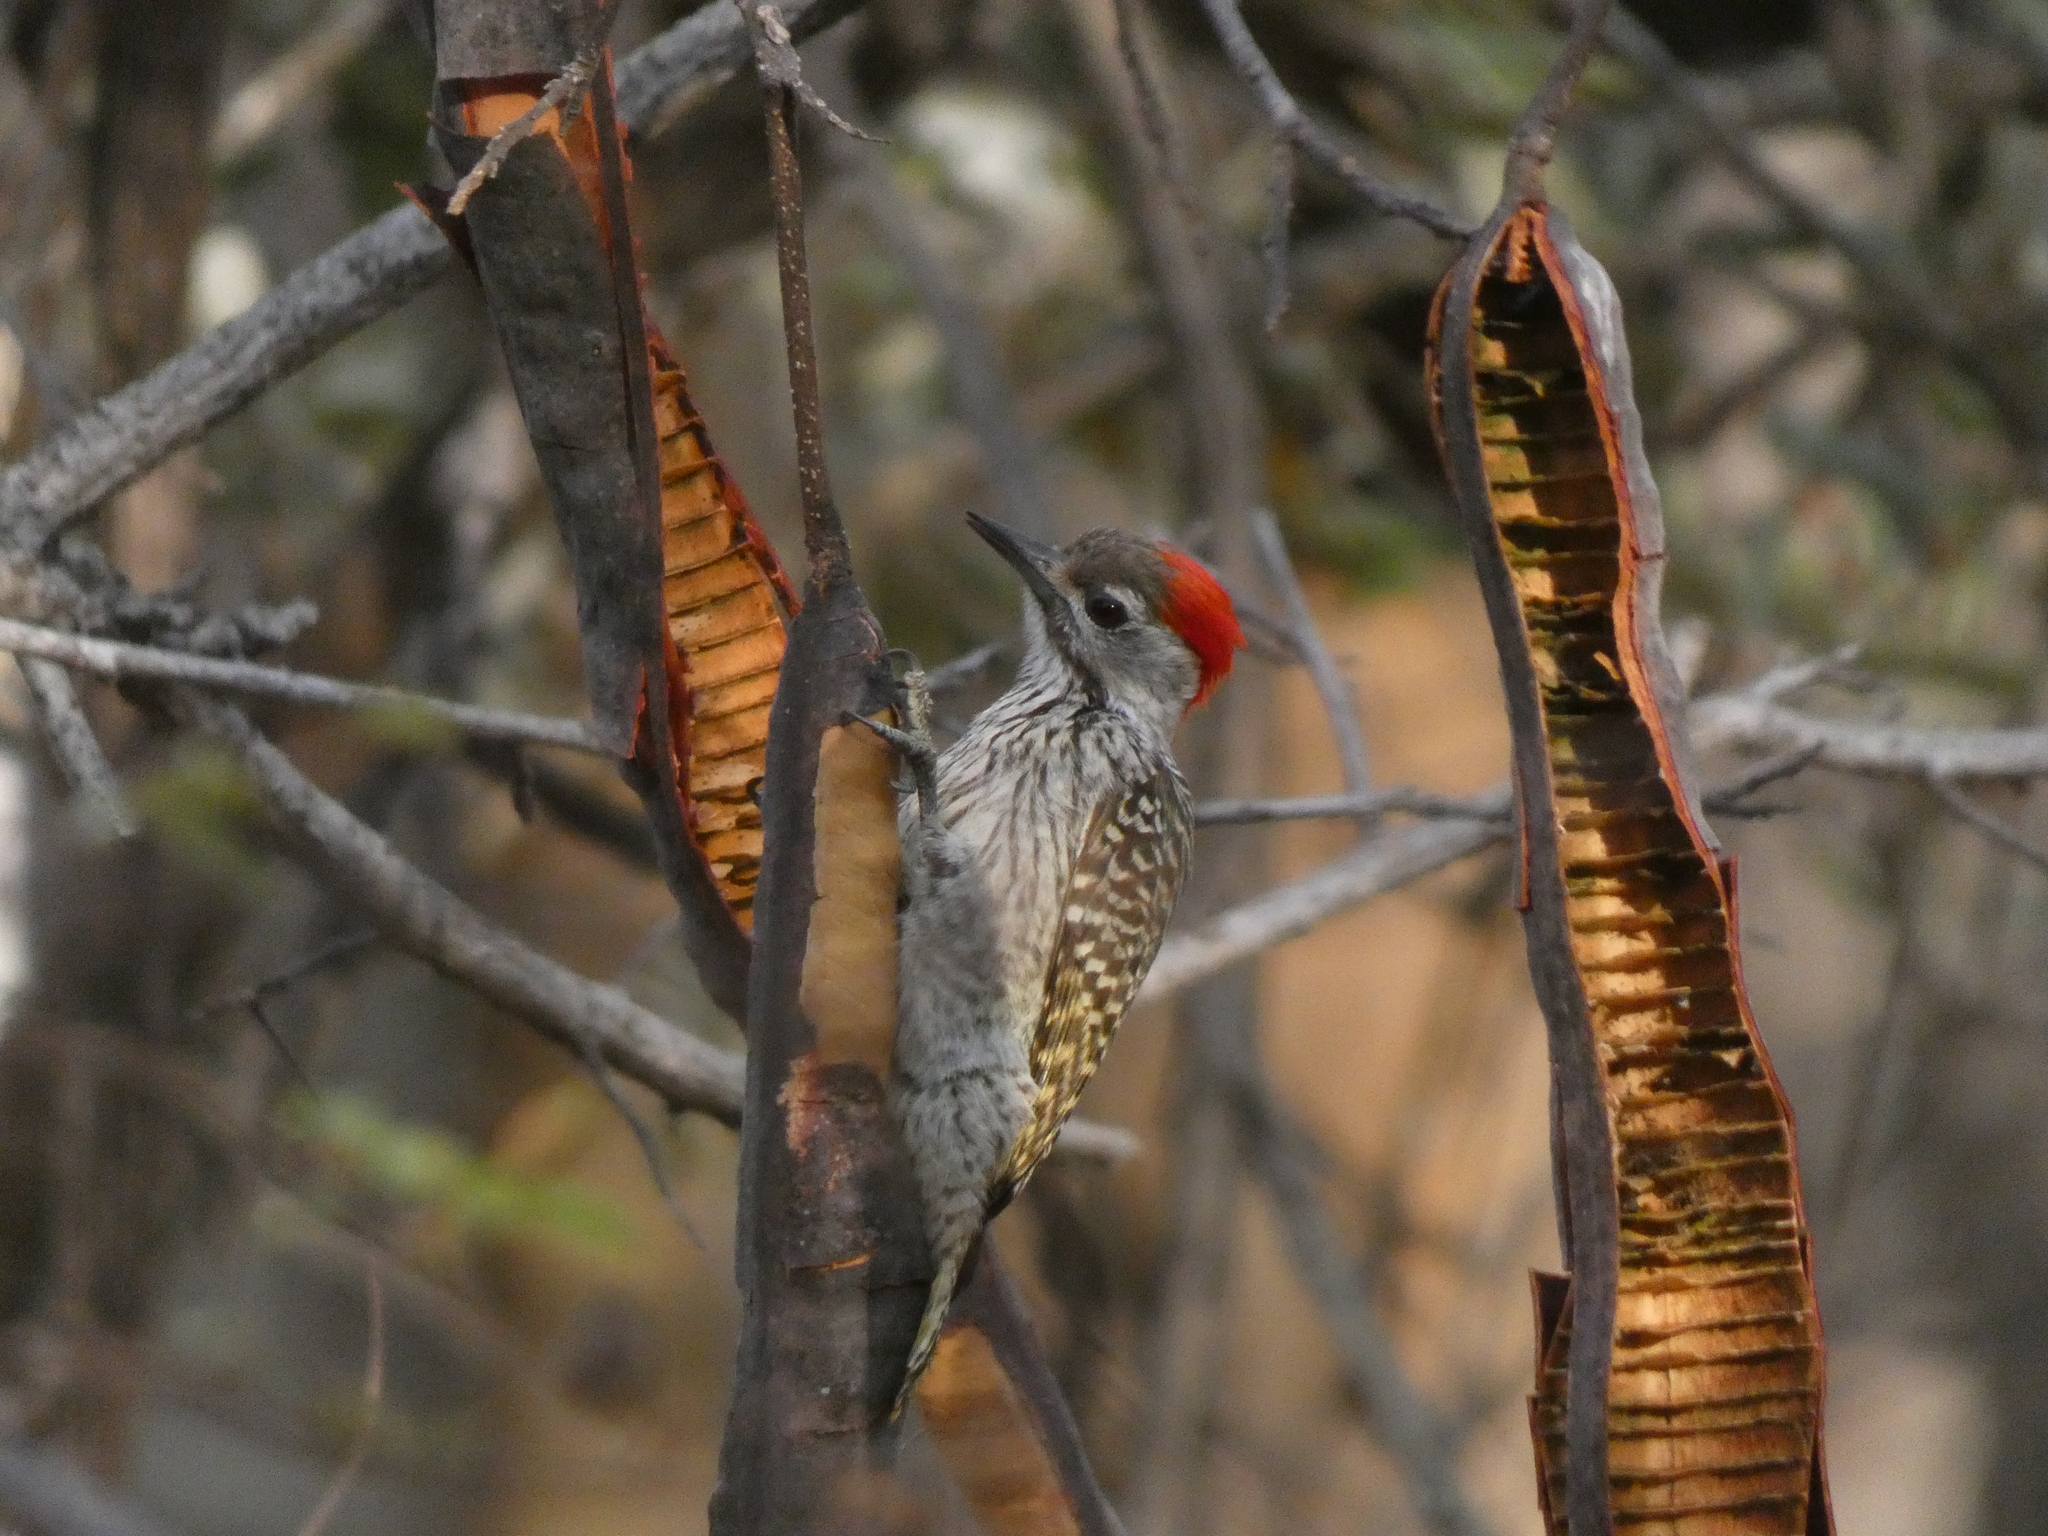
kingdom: Animalia
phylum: Chordata
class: Aves
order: Piciformes
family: Picidae
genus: Dendropicos
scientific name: Dendropicos fuscescens
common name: Cardinal woodpecker
